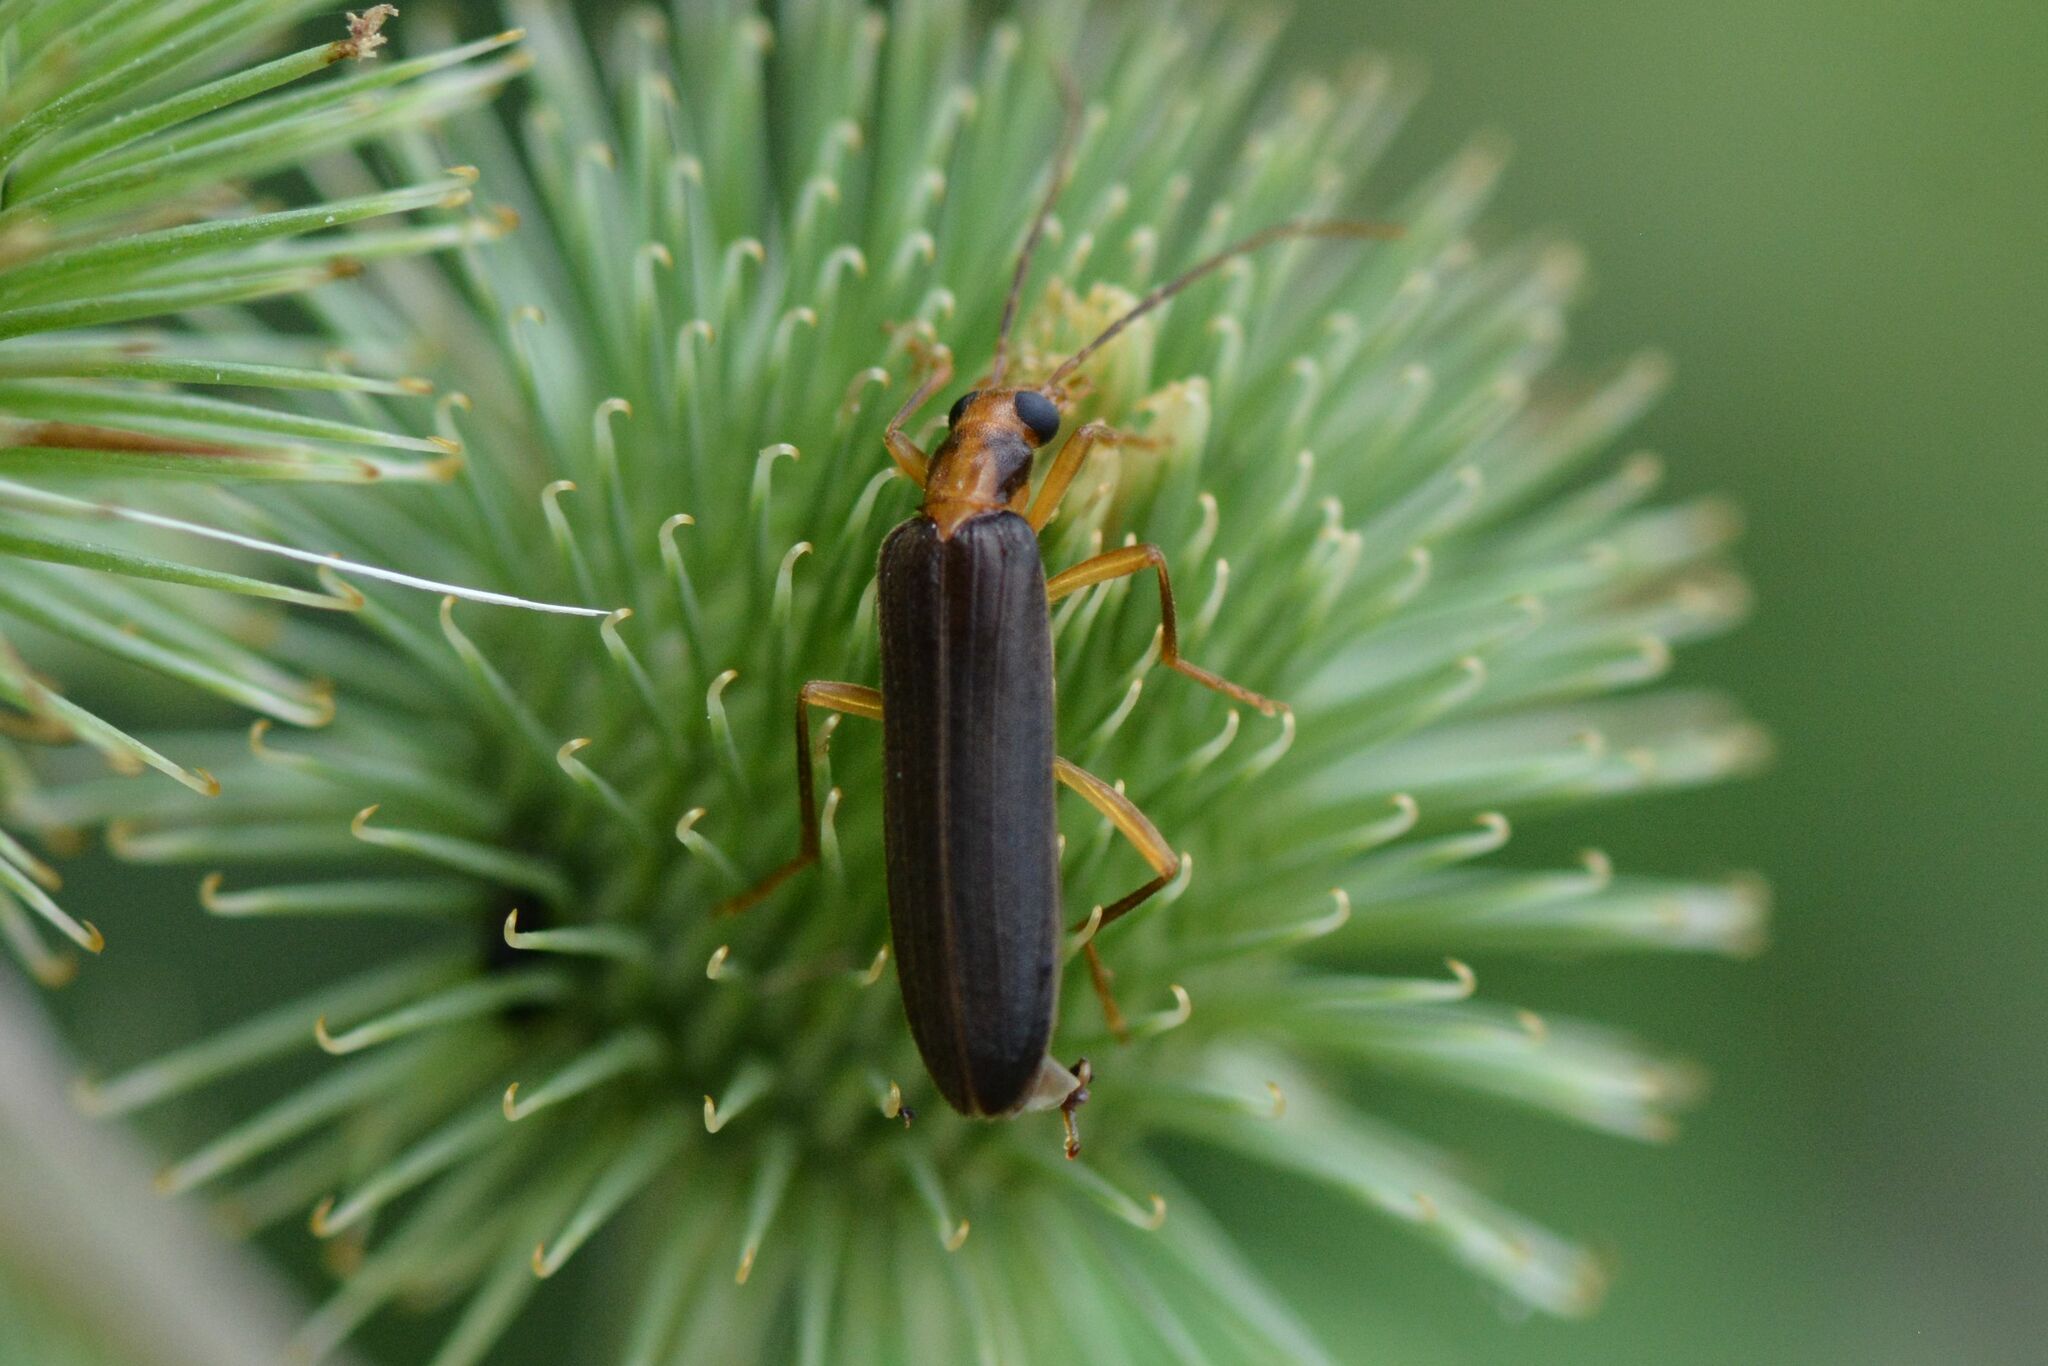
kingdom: Animalia
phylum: Arthropoda
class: Insecta
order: Coleoptera
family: Oedemeridae
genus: Nacerdes
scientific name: Nacerdes carniolica
